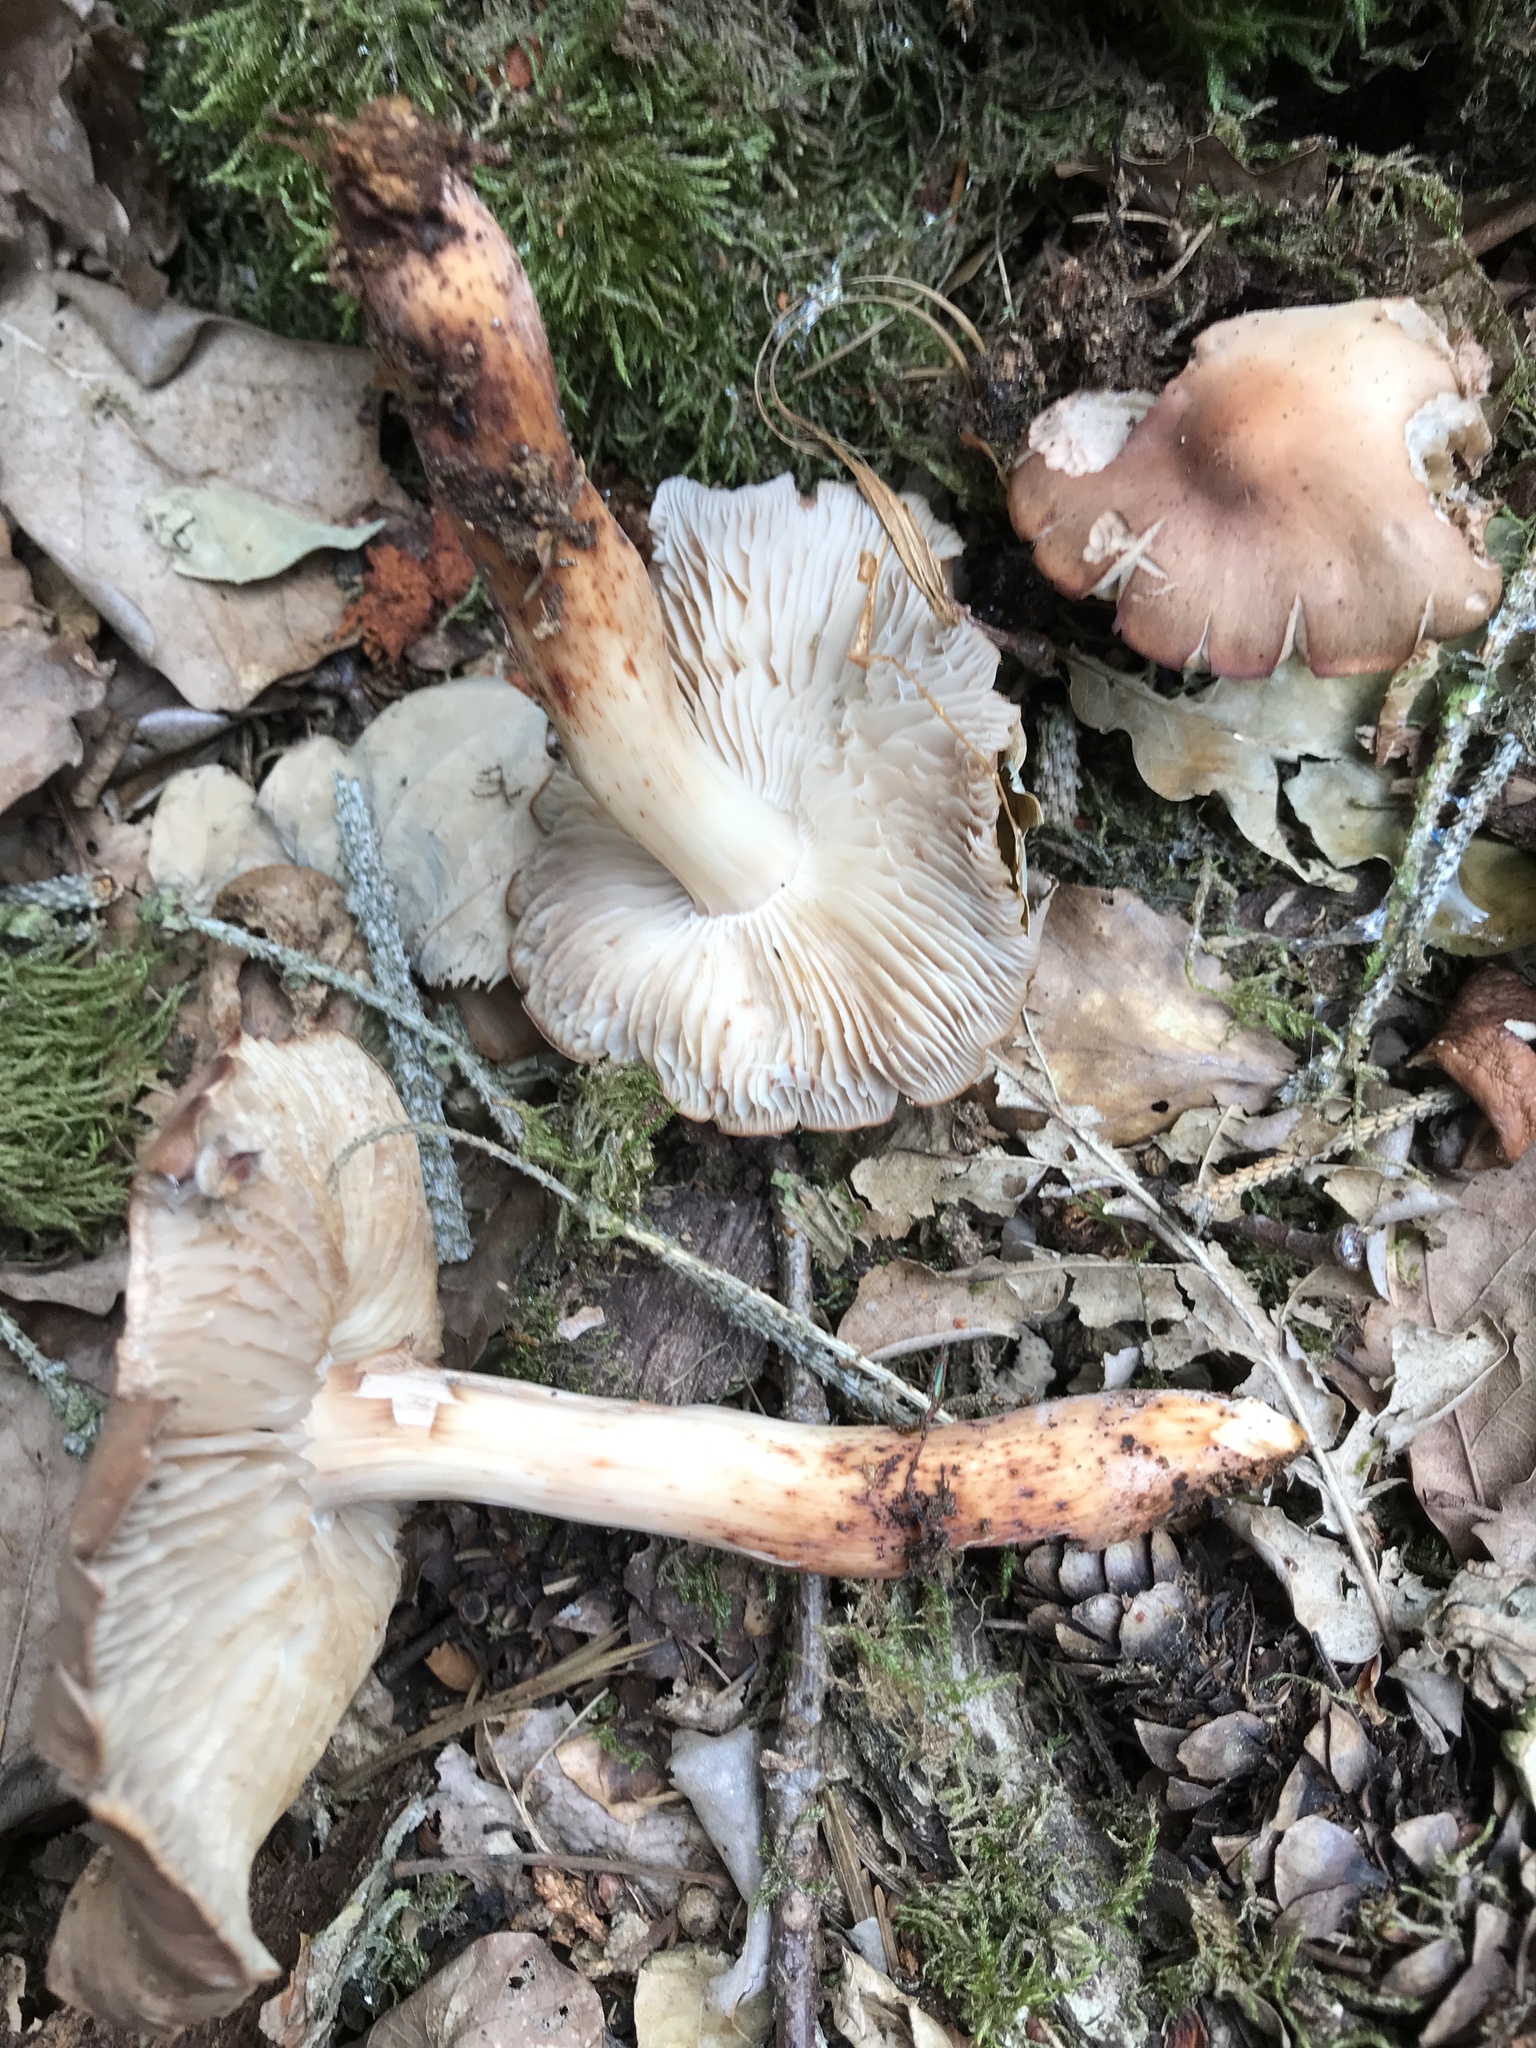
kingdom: Fungi
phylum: Basidiomycota
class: Agaricomycetes
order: Agaricales
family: Omphalotaceae
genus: Gymnopus
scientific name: Gymnopus fusipes
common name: Spindle shank
